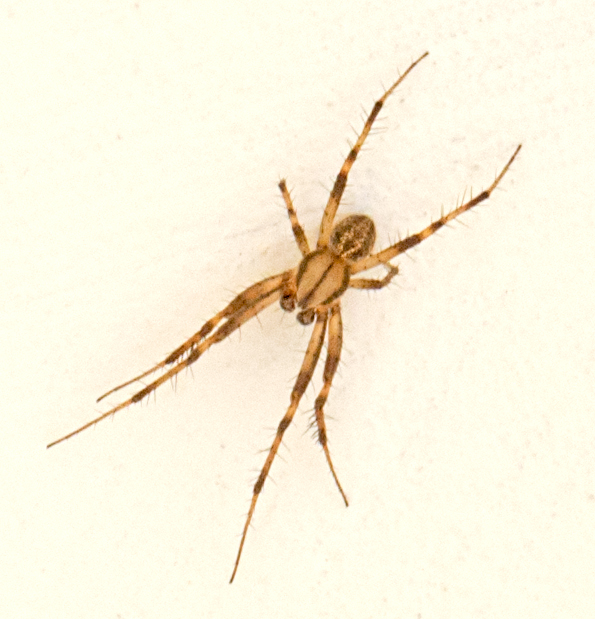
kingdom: Animalia
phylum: Arthropoda
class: Arachnida
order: Araneae
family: Araneidae
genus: Neoscona
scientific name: Neoscona adianta
